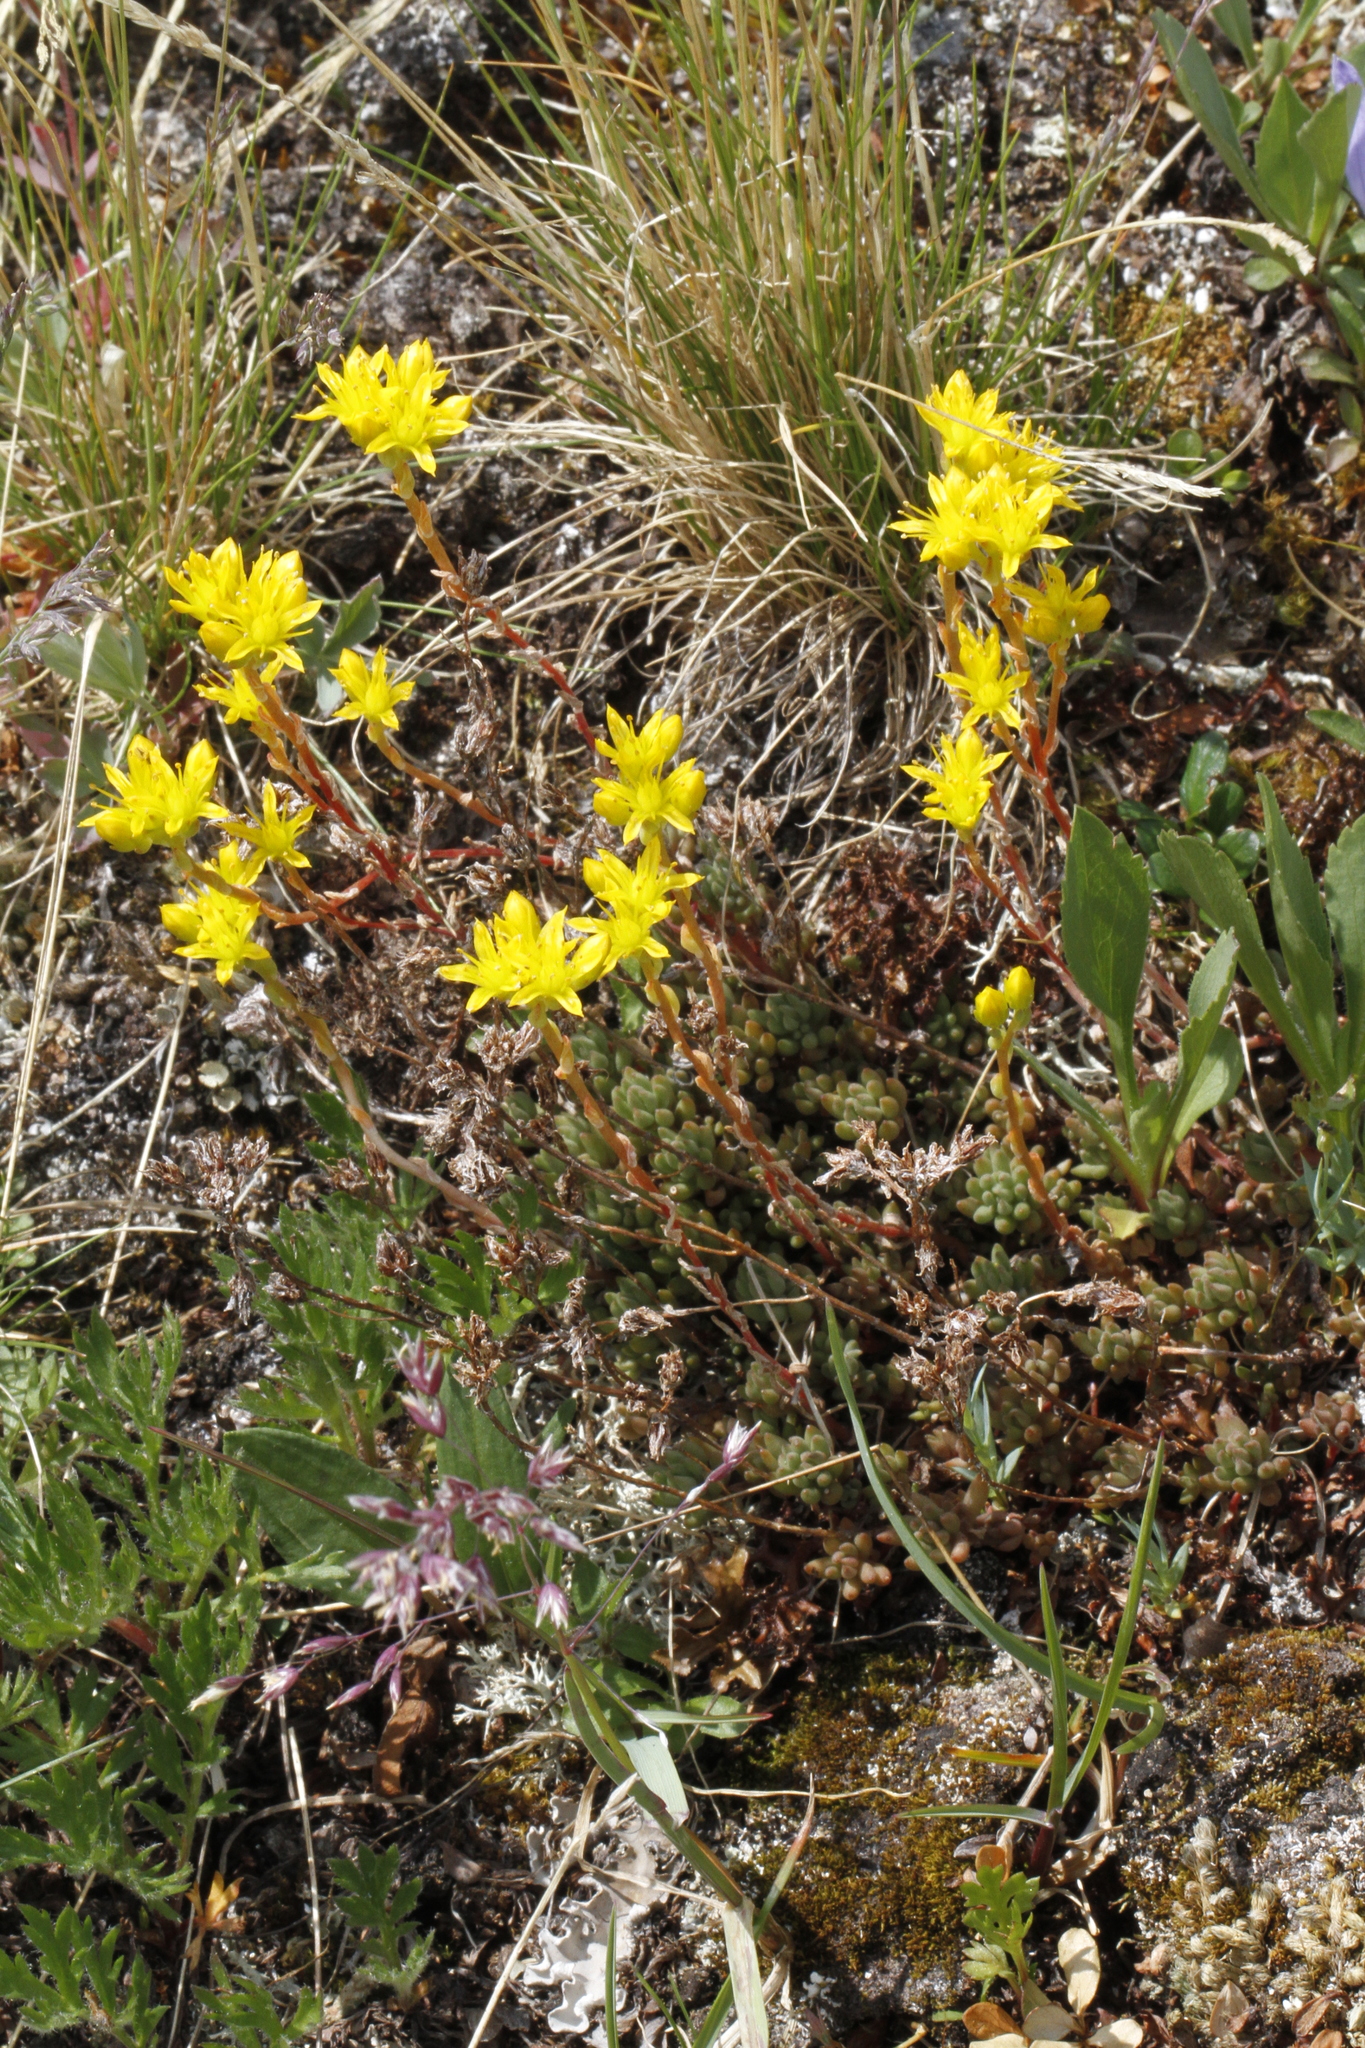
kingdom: Plantae
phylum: Tracheophyta
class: Magnoliopsida
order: Saxifragales
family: Crassulaceae
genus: Sedum
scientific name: Sedum lanceolatum
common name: Common stonecrop
